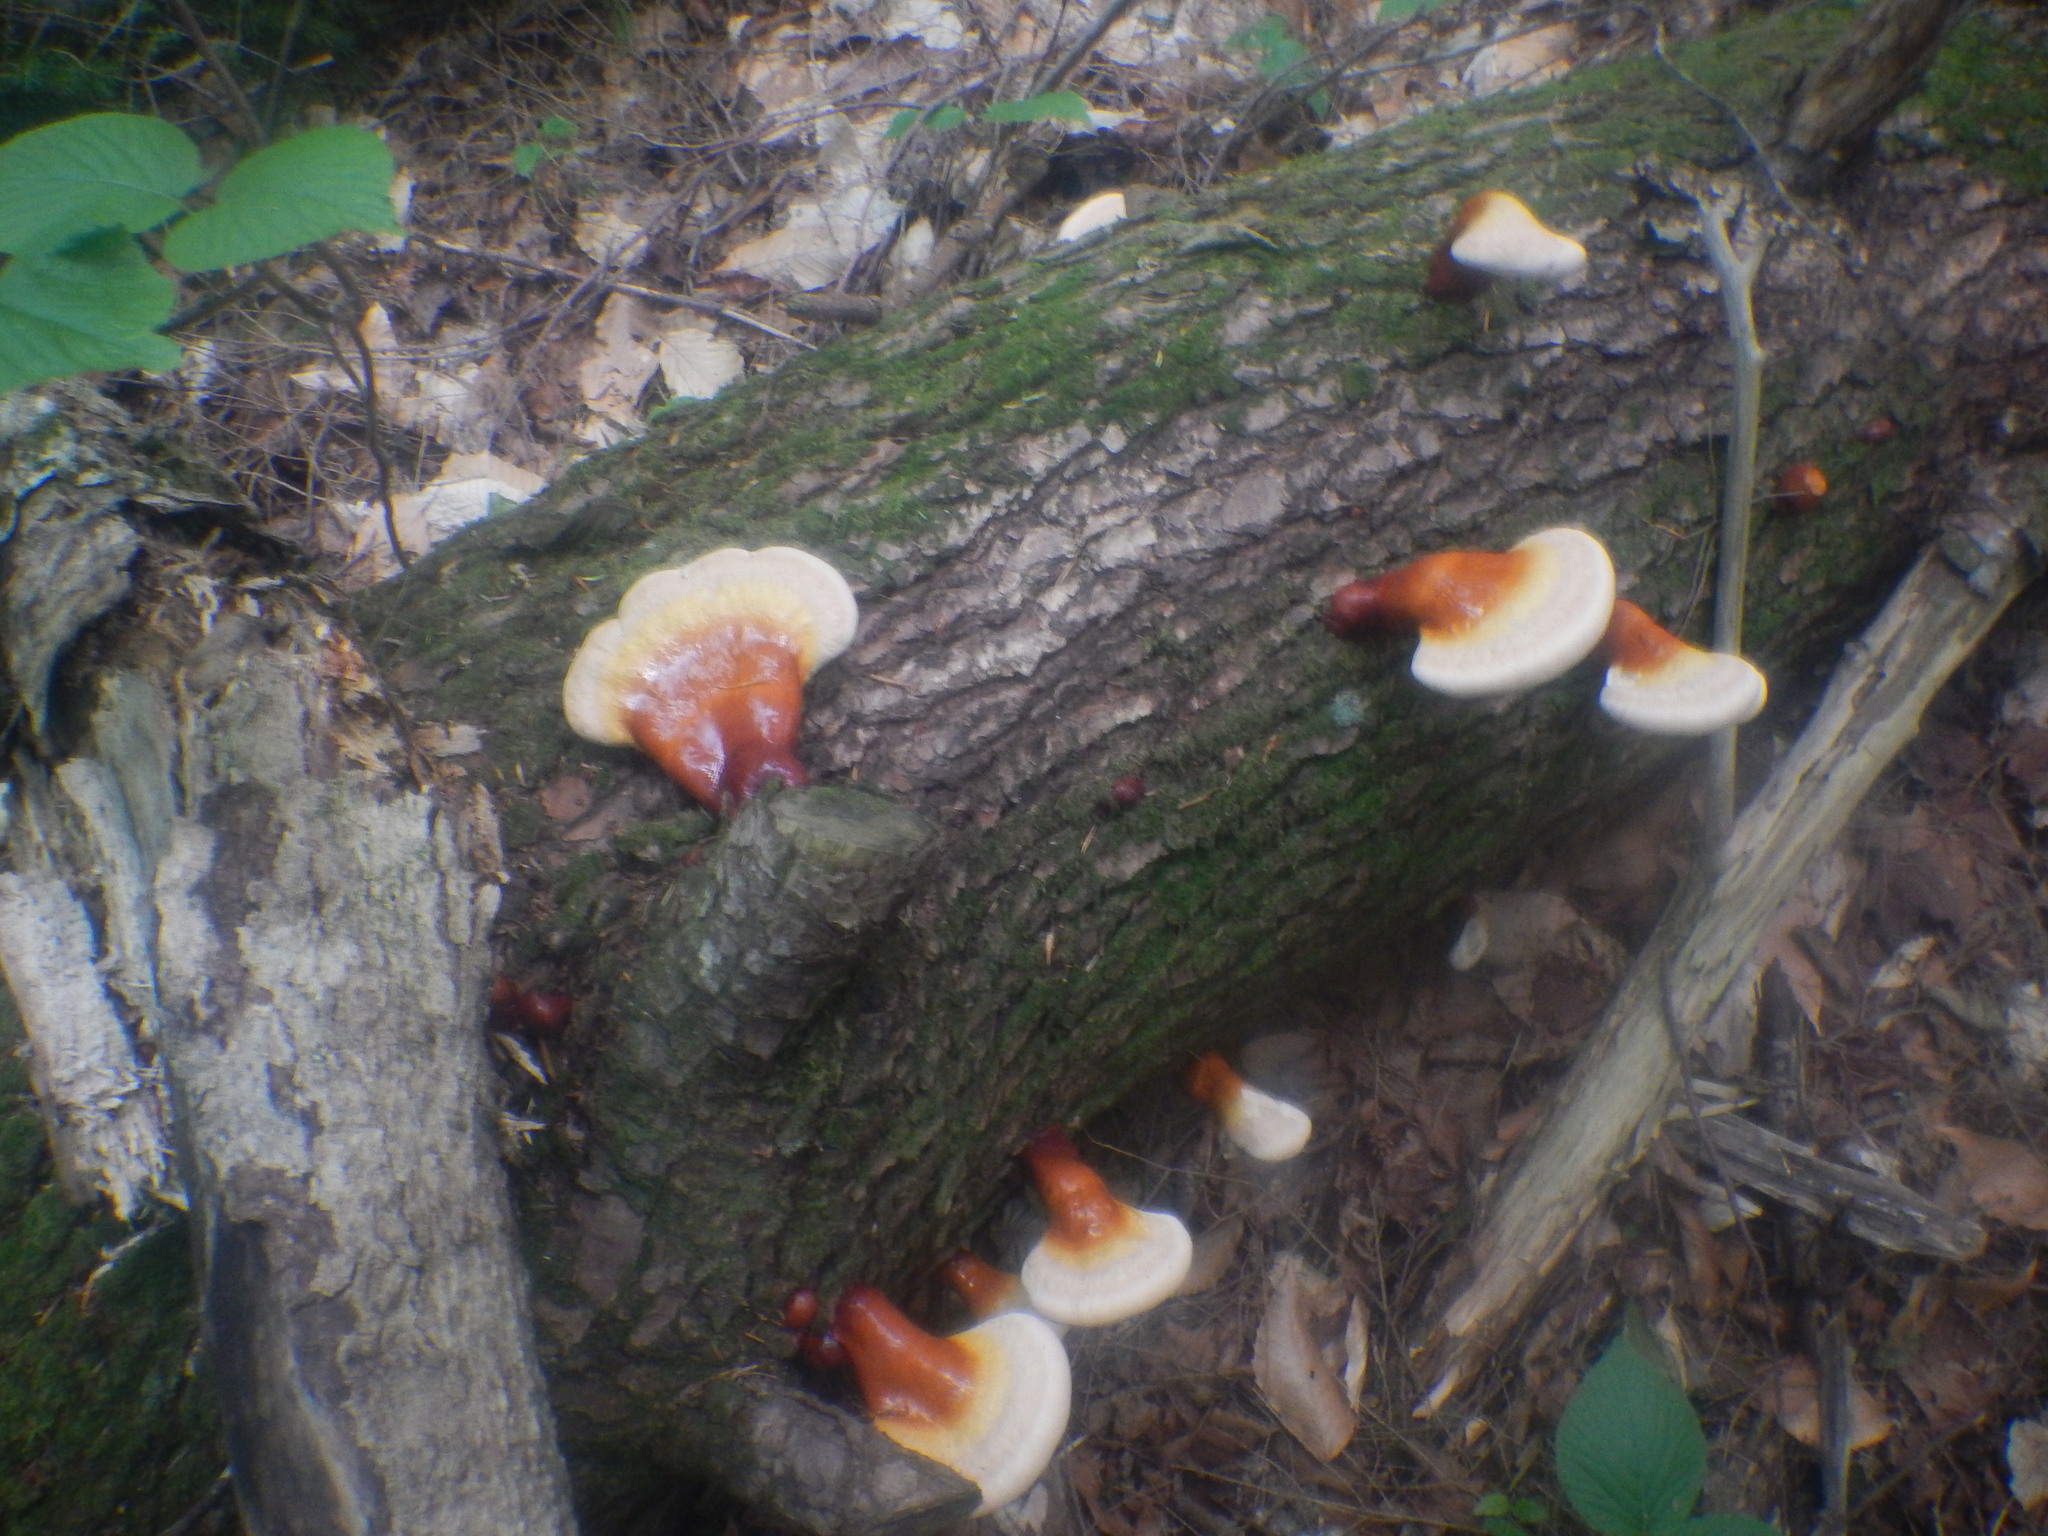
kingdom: Fungi
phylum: Basidiomycota
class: Agaricomycetes
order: Polyporales
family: Polyporaceae
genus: Ganoderma
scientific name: Ganoderma tsugae
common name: Hemlock varnish shelf
